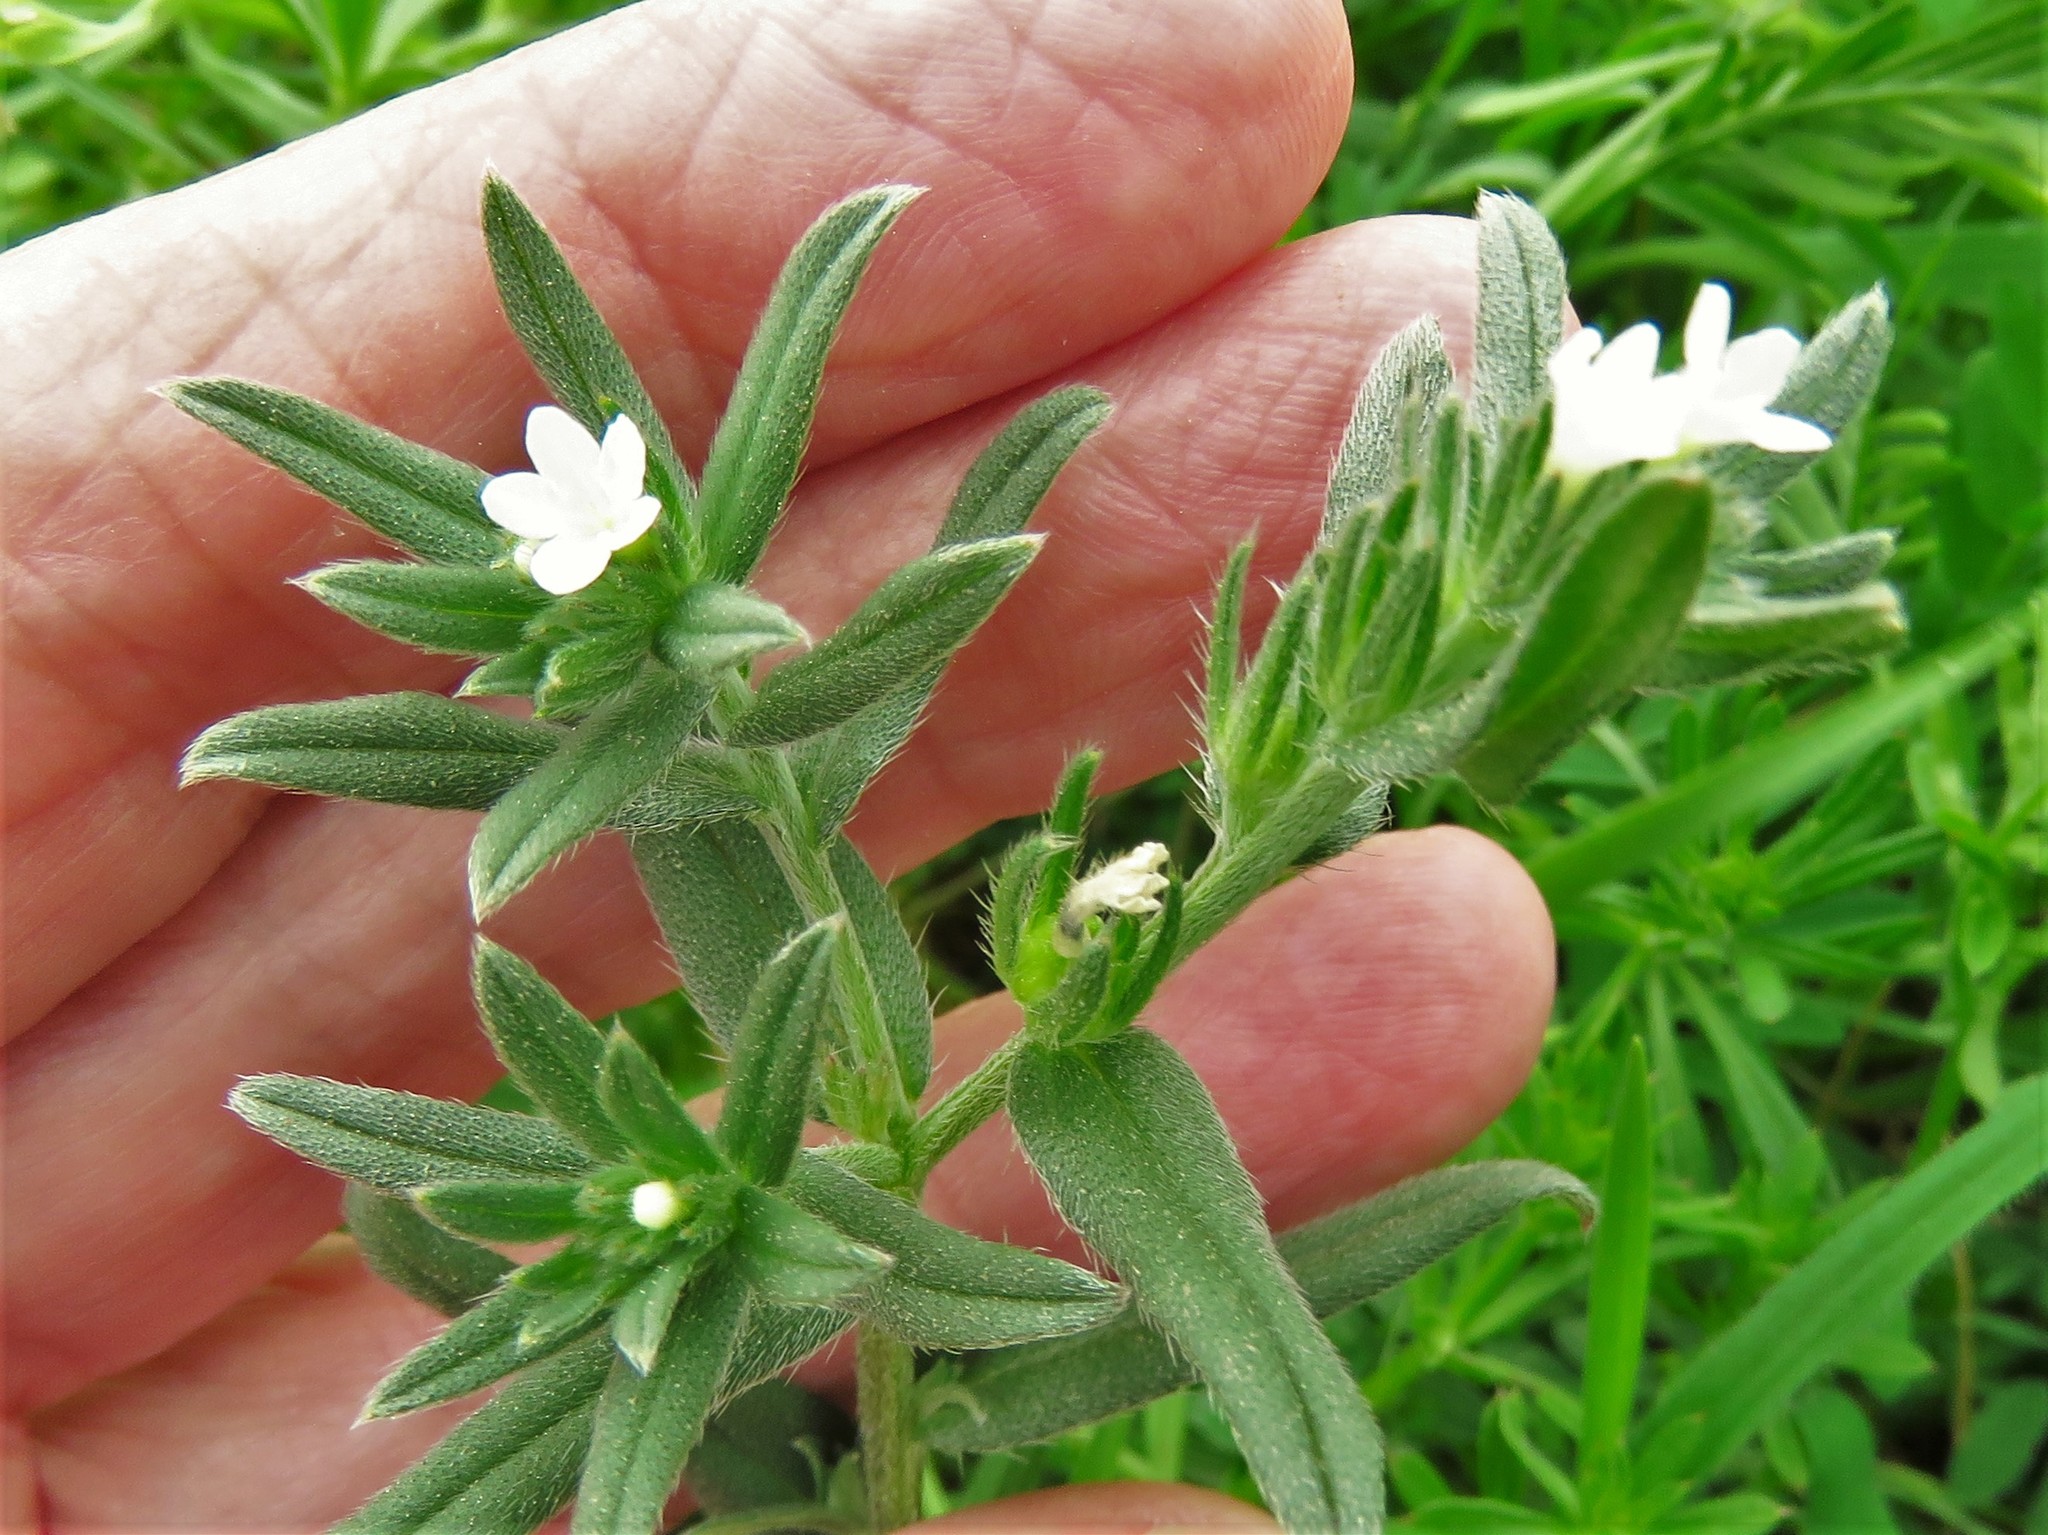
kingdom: Plantae
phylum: Tracheophyta
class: Magnoliopsida
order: Boraginales
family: Boraginaceae
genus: Buglossoides
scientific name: Buglossoides arvensis
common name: Corn gromwell
